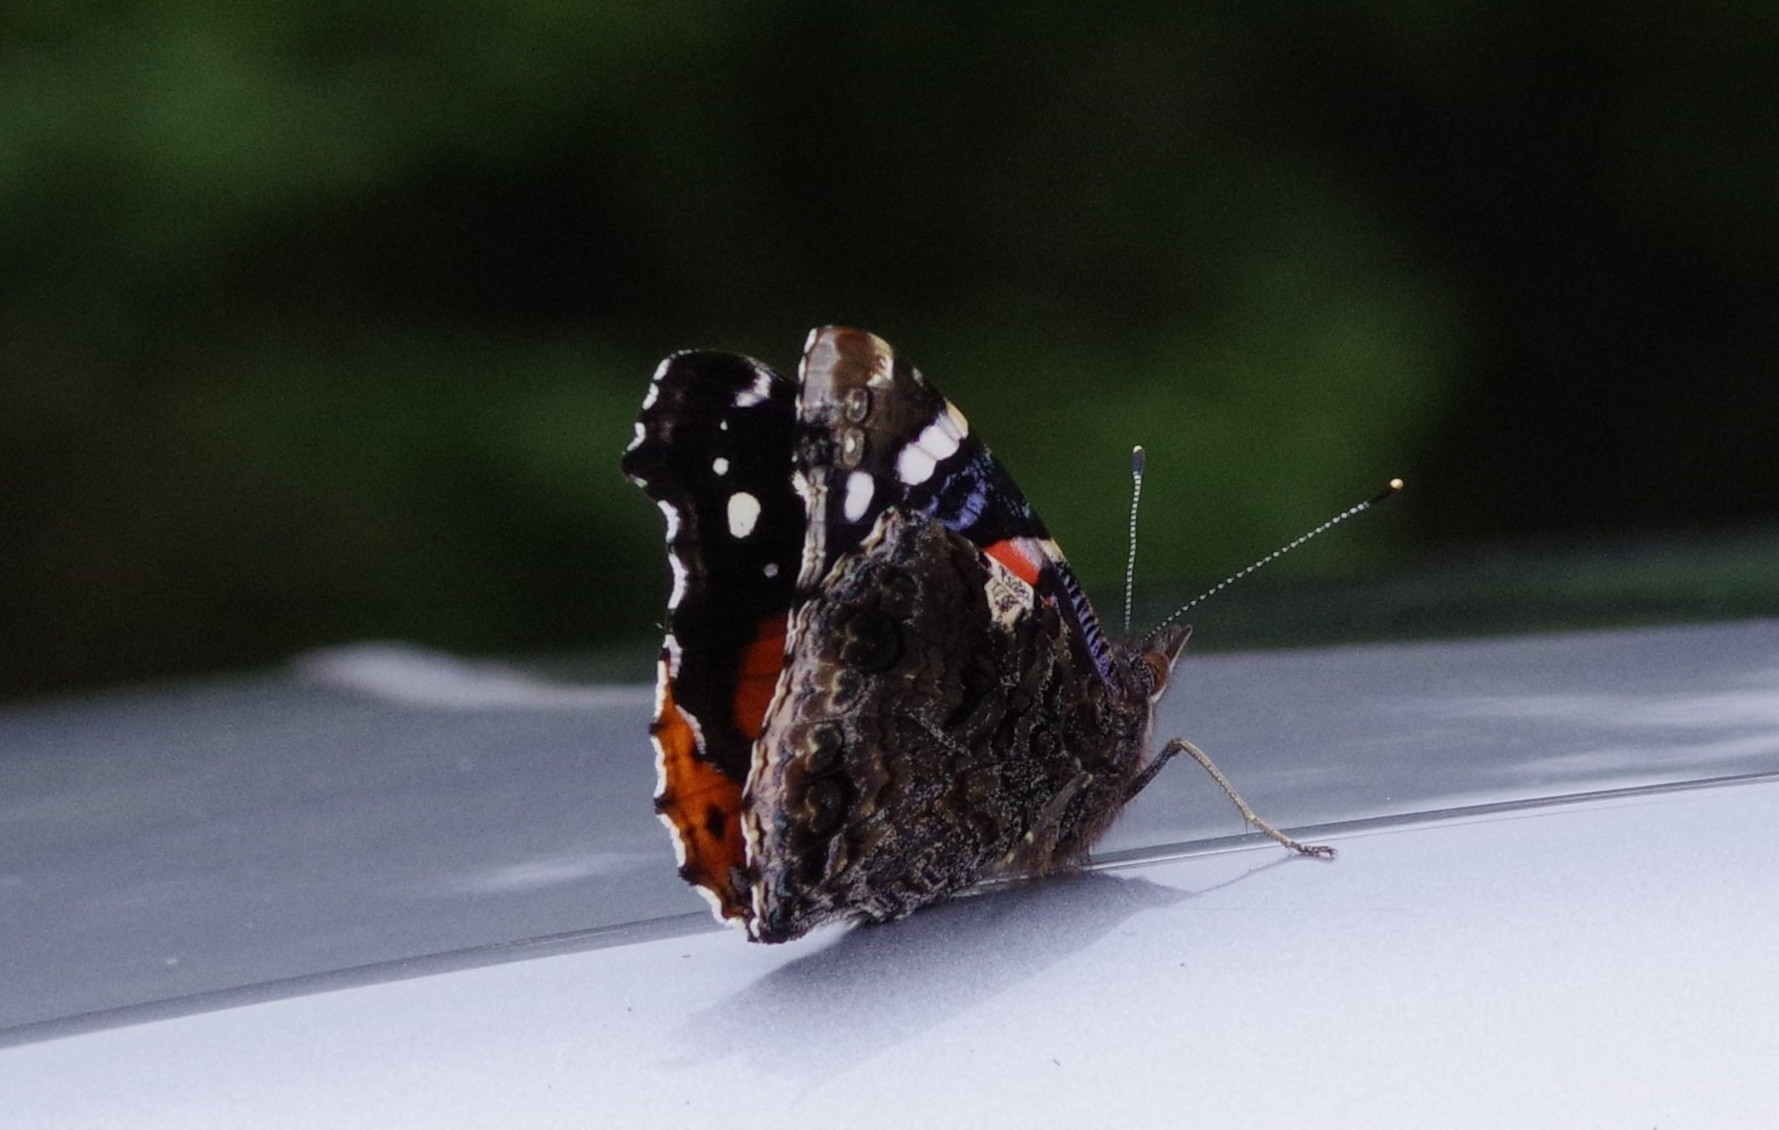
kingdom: Animalia
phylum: Arthropoda
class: Insecta
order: Lepidoptera
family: Nymphalidae
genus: Vanessa
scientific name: Vanessa atalanta
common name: Red admiral
